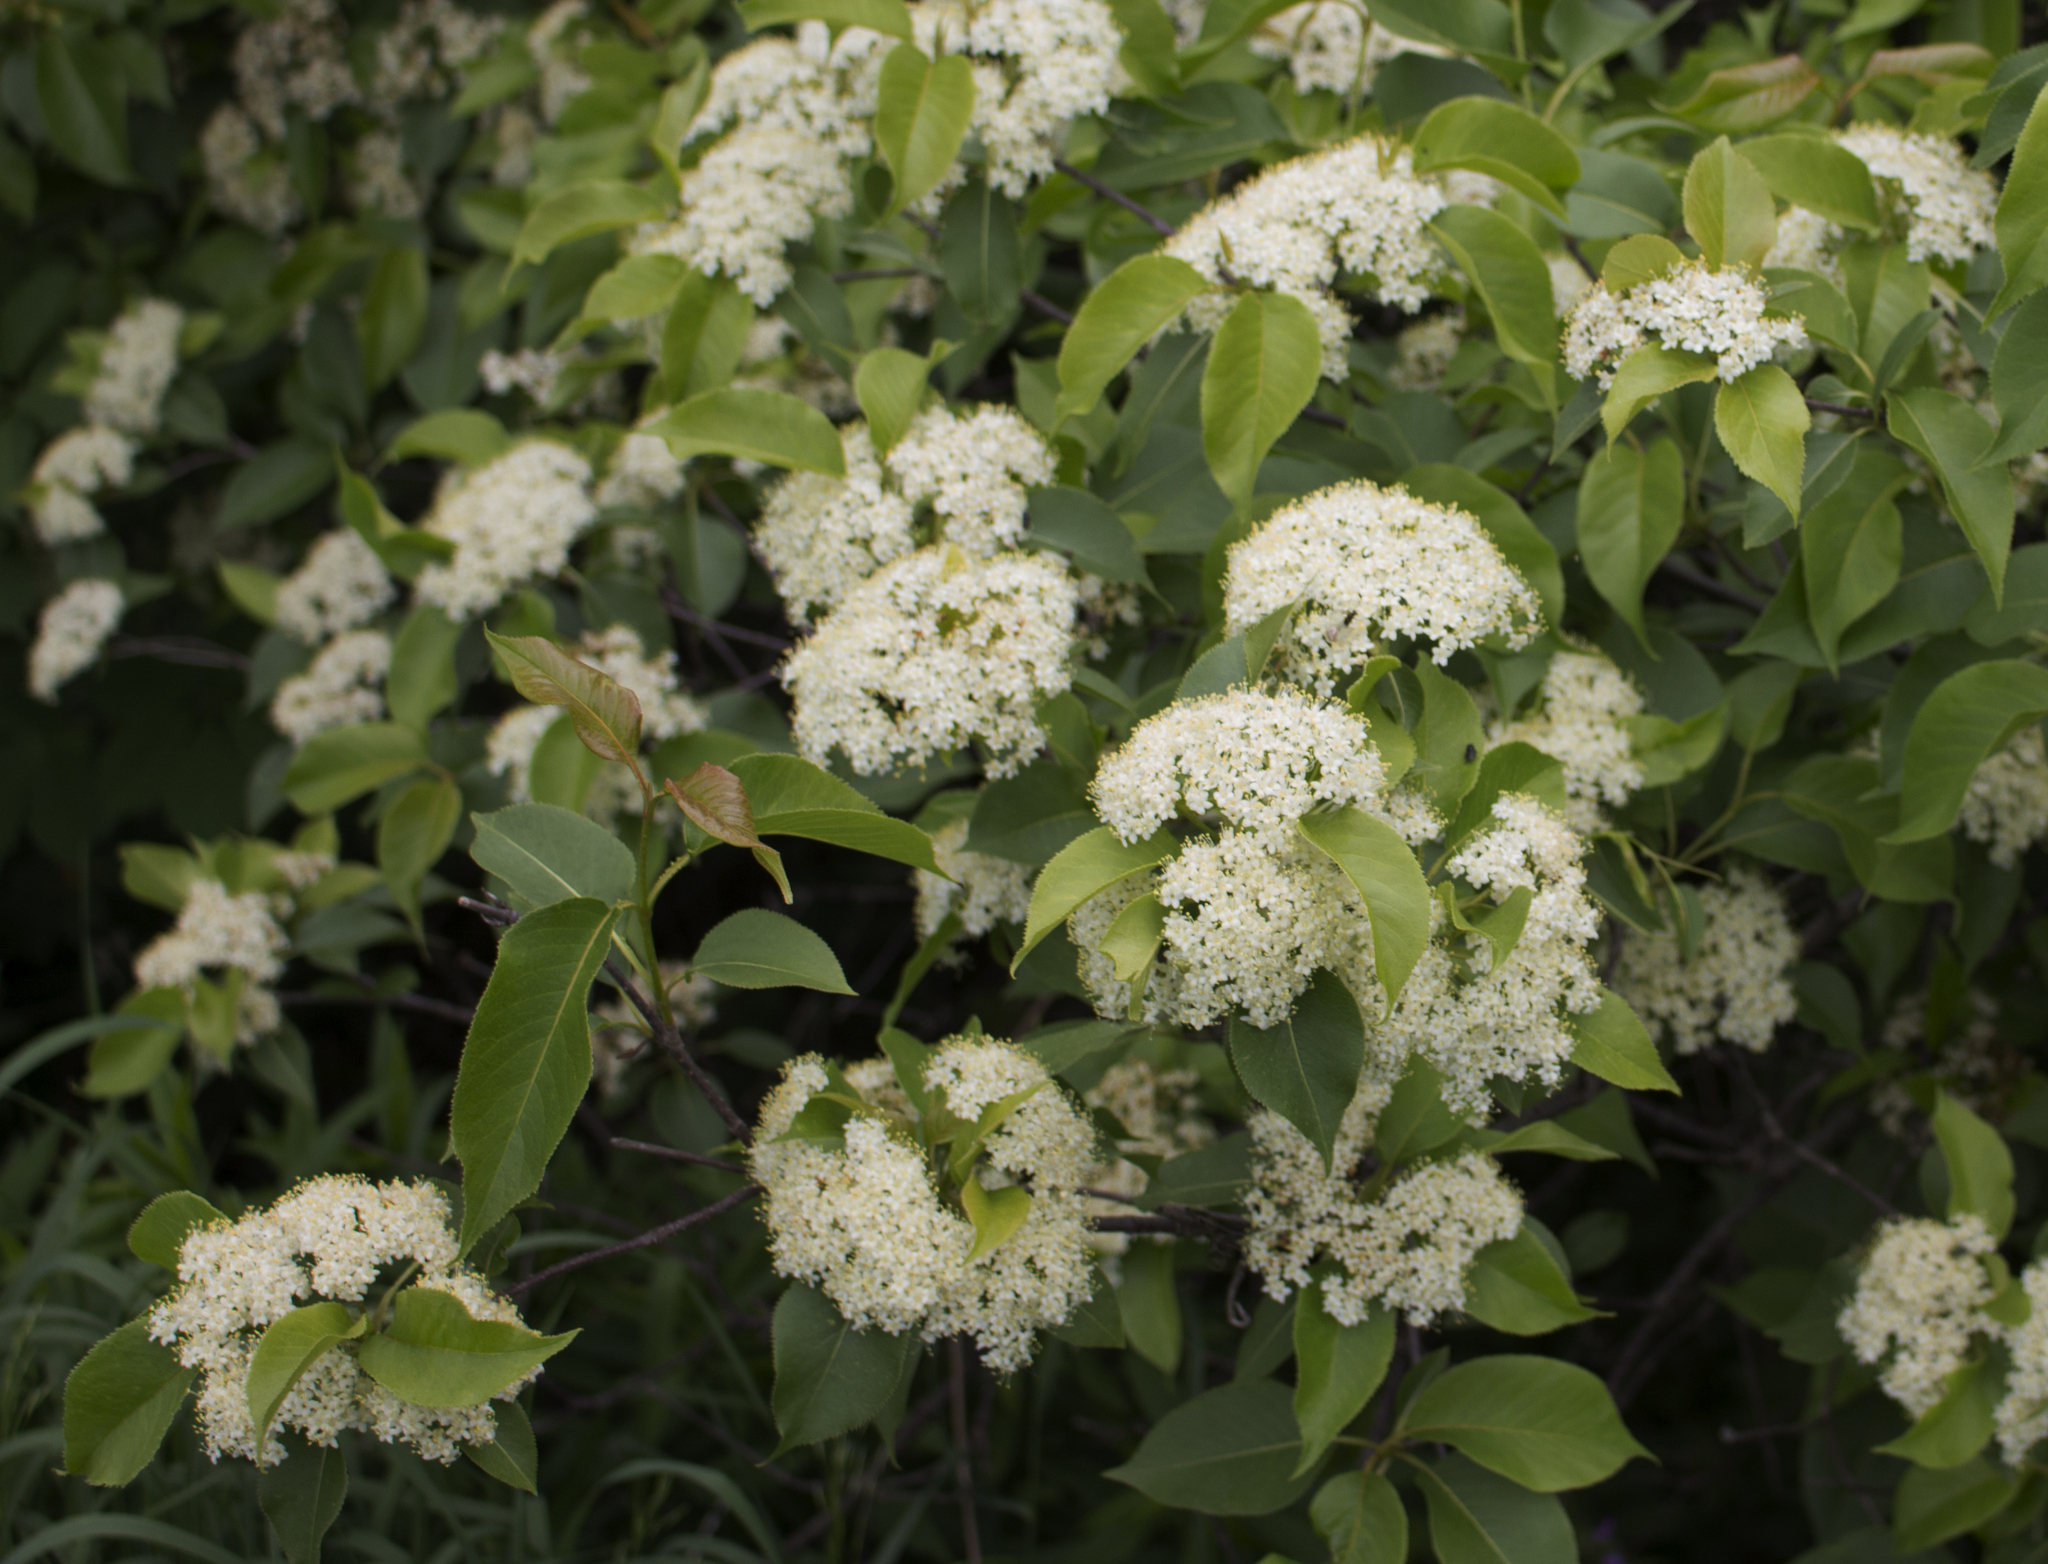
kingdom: Plantae
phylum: Tracheophyta
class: Magnoliopsida
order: Dipsacales
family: Viburnaceae
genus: Viburnum
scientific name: Viburnum lentago
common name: Black haw
